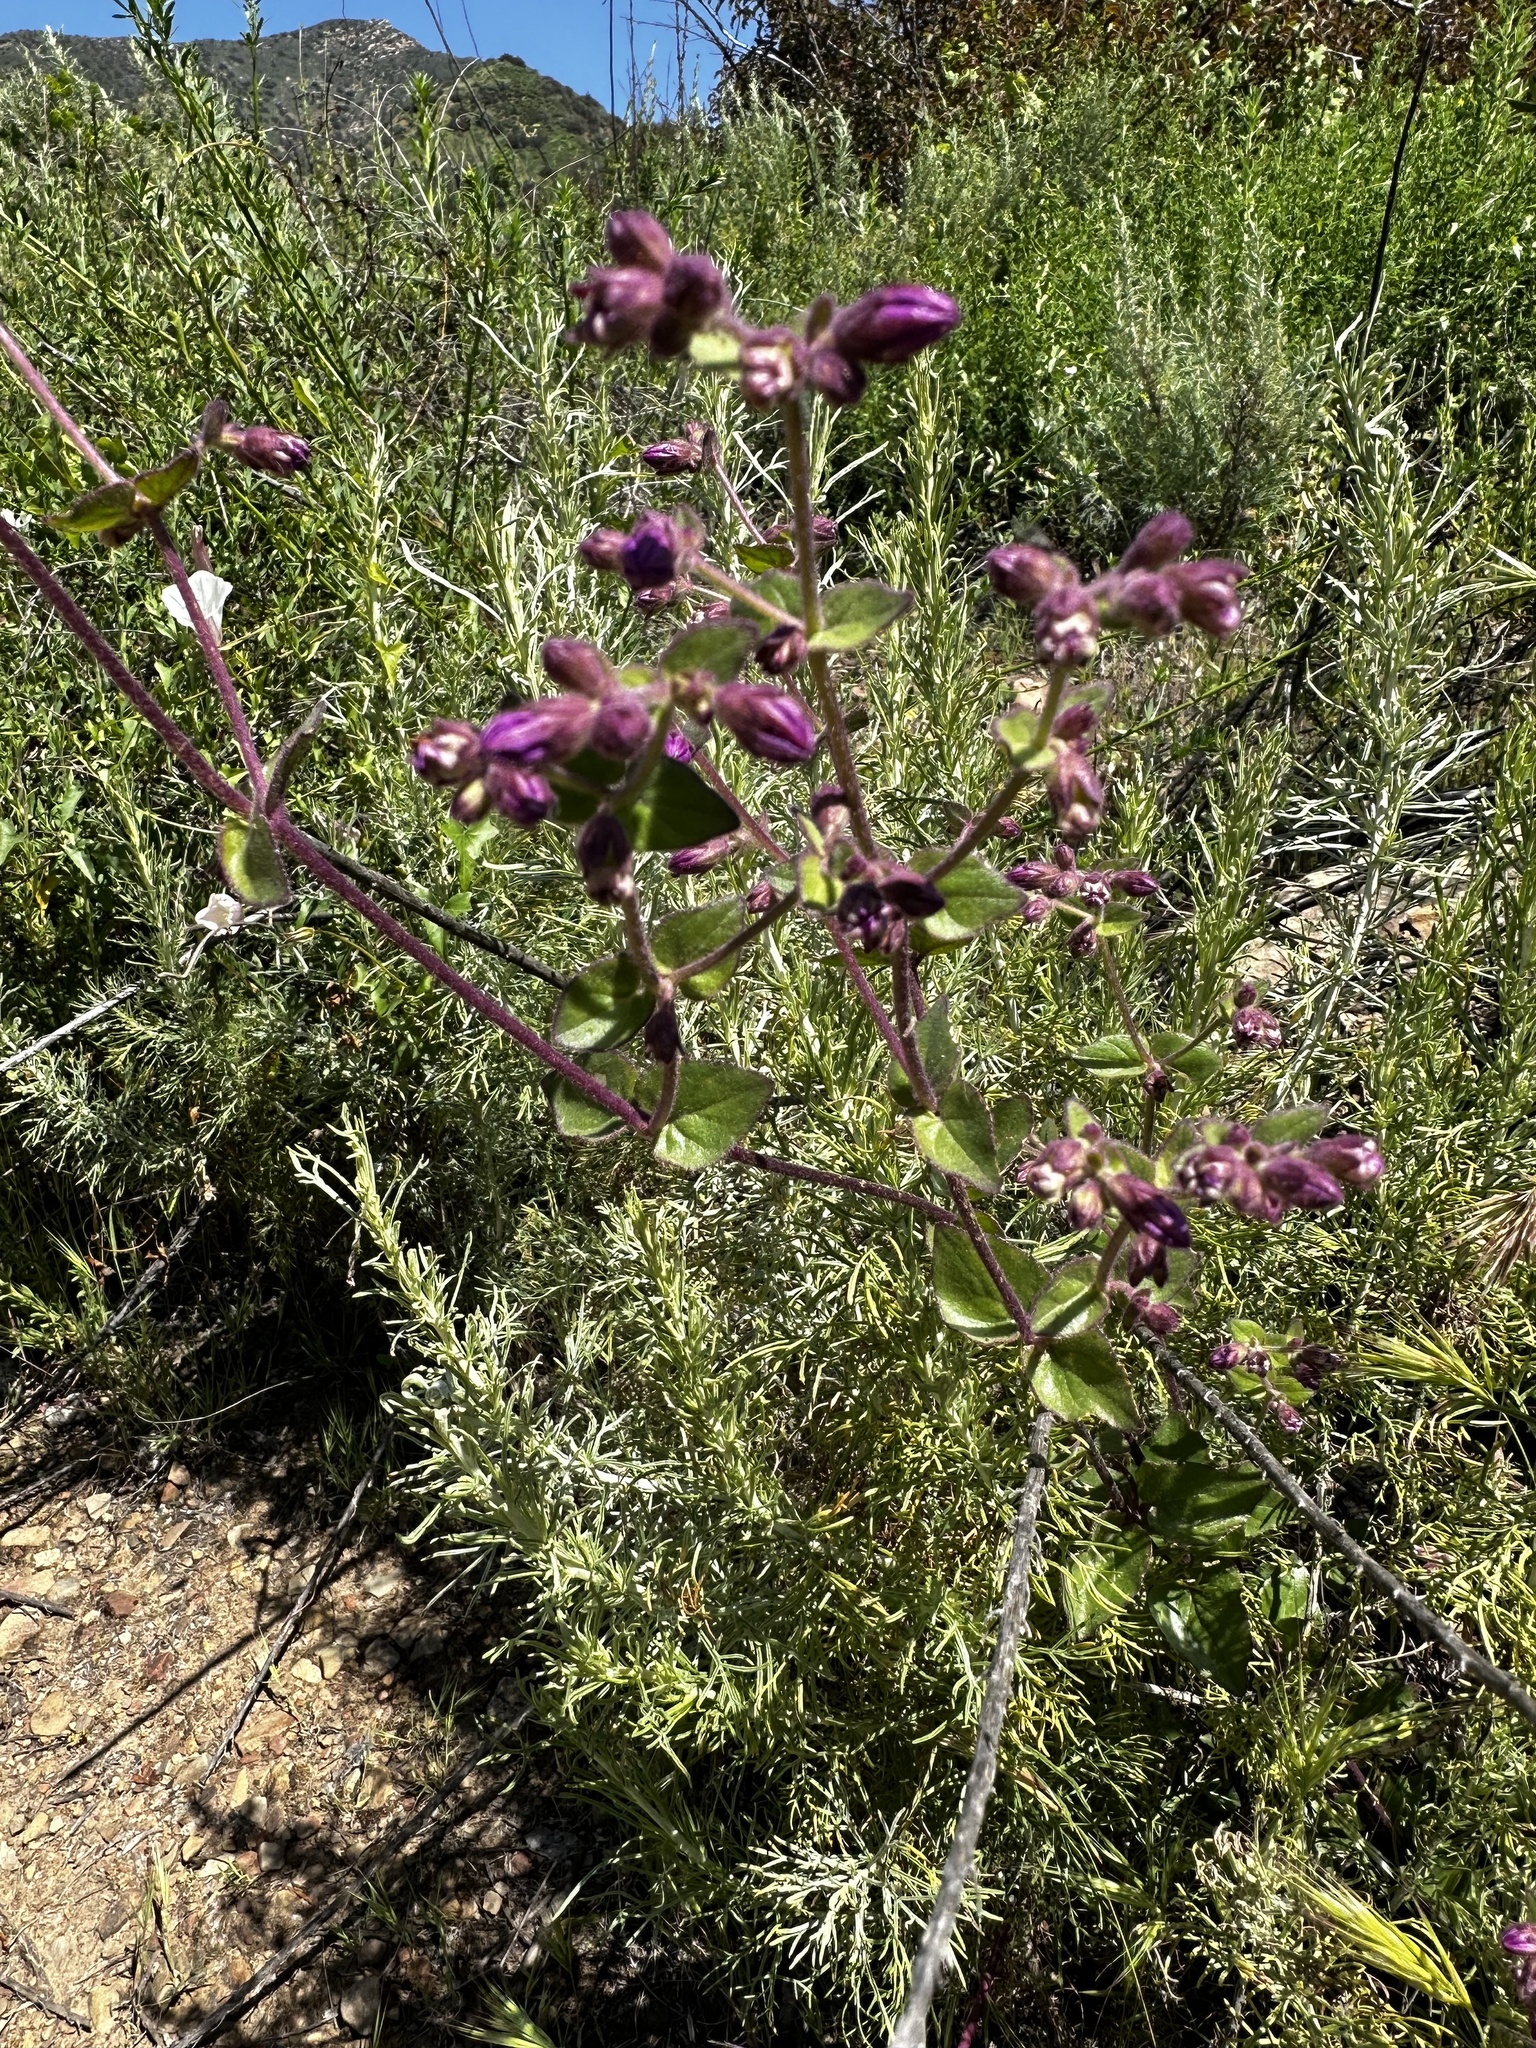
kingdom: Plantae
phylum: Tracheophyta
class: Magnoliopsida
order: Caryophyllales
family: Nyctaginaceae
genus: Mirabilis
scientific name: Mirabilis laevis
